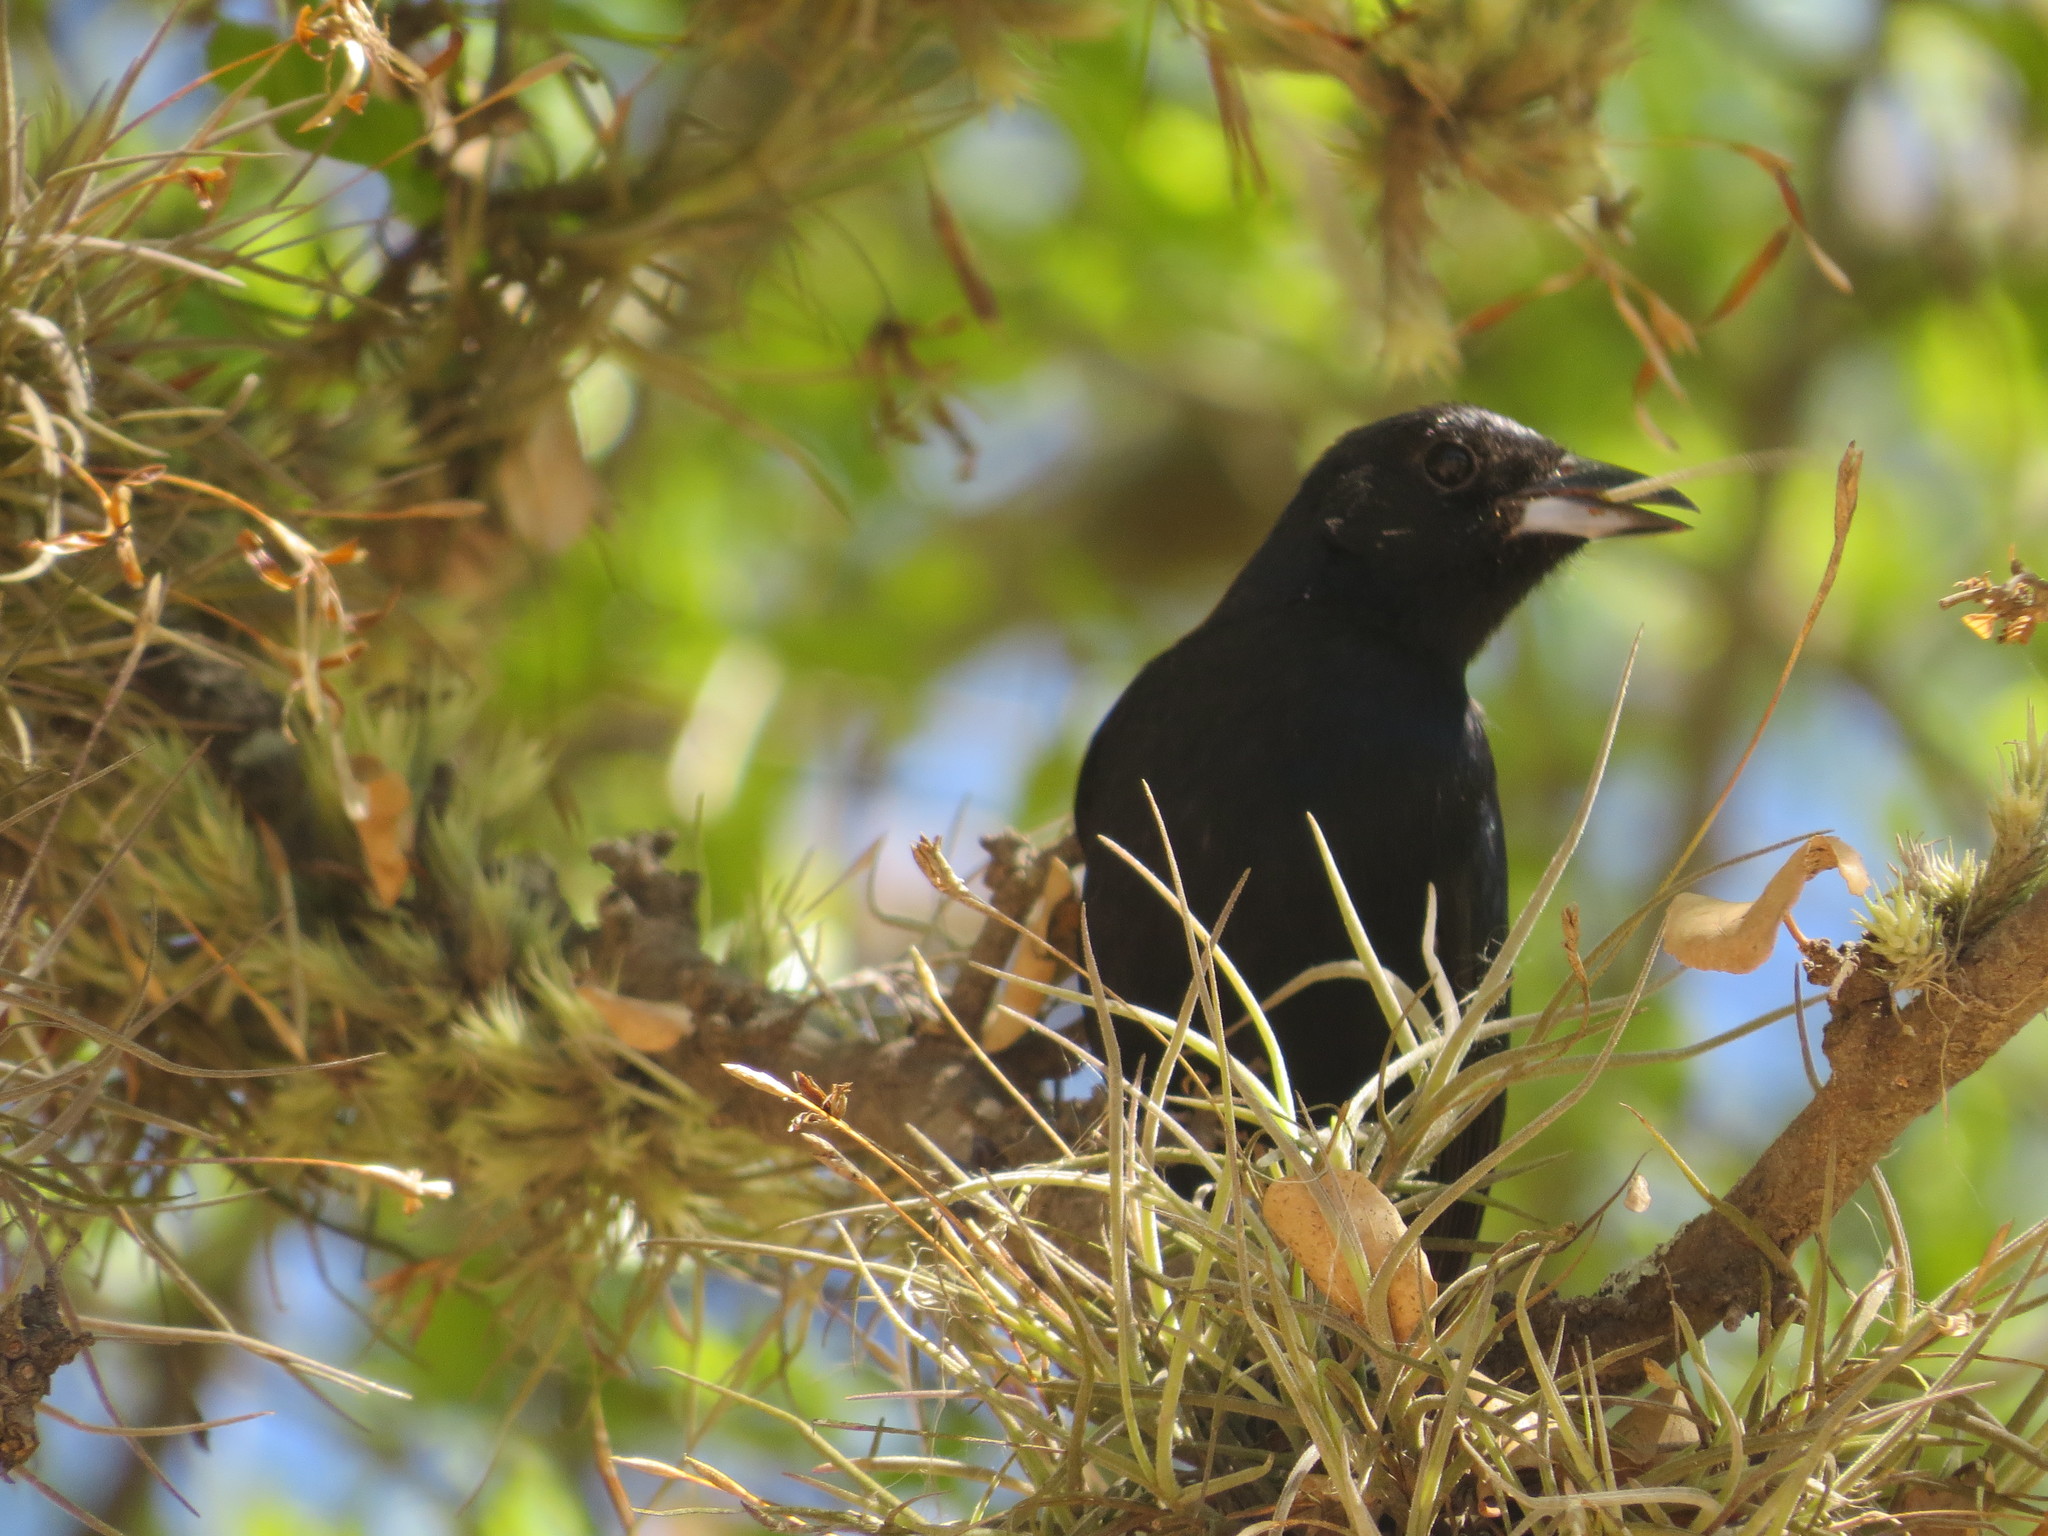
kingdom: Animalia
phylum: Chordata
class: Aves
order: Passeriformes
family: Thraupidae
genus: Tachyphonus
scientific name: Tachyphonus rufus
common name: White-lined tanager
